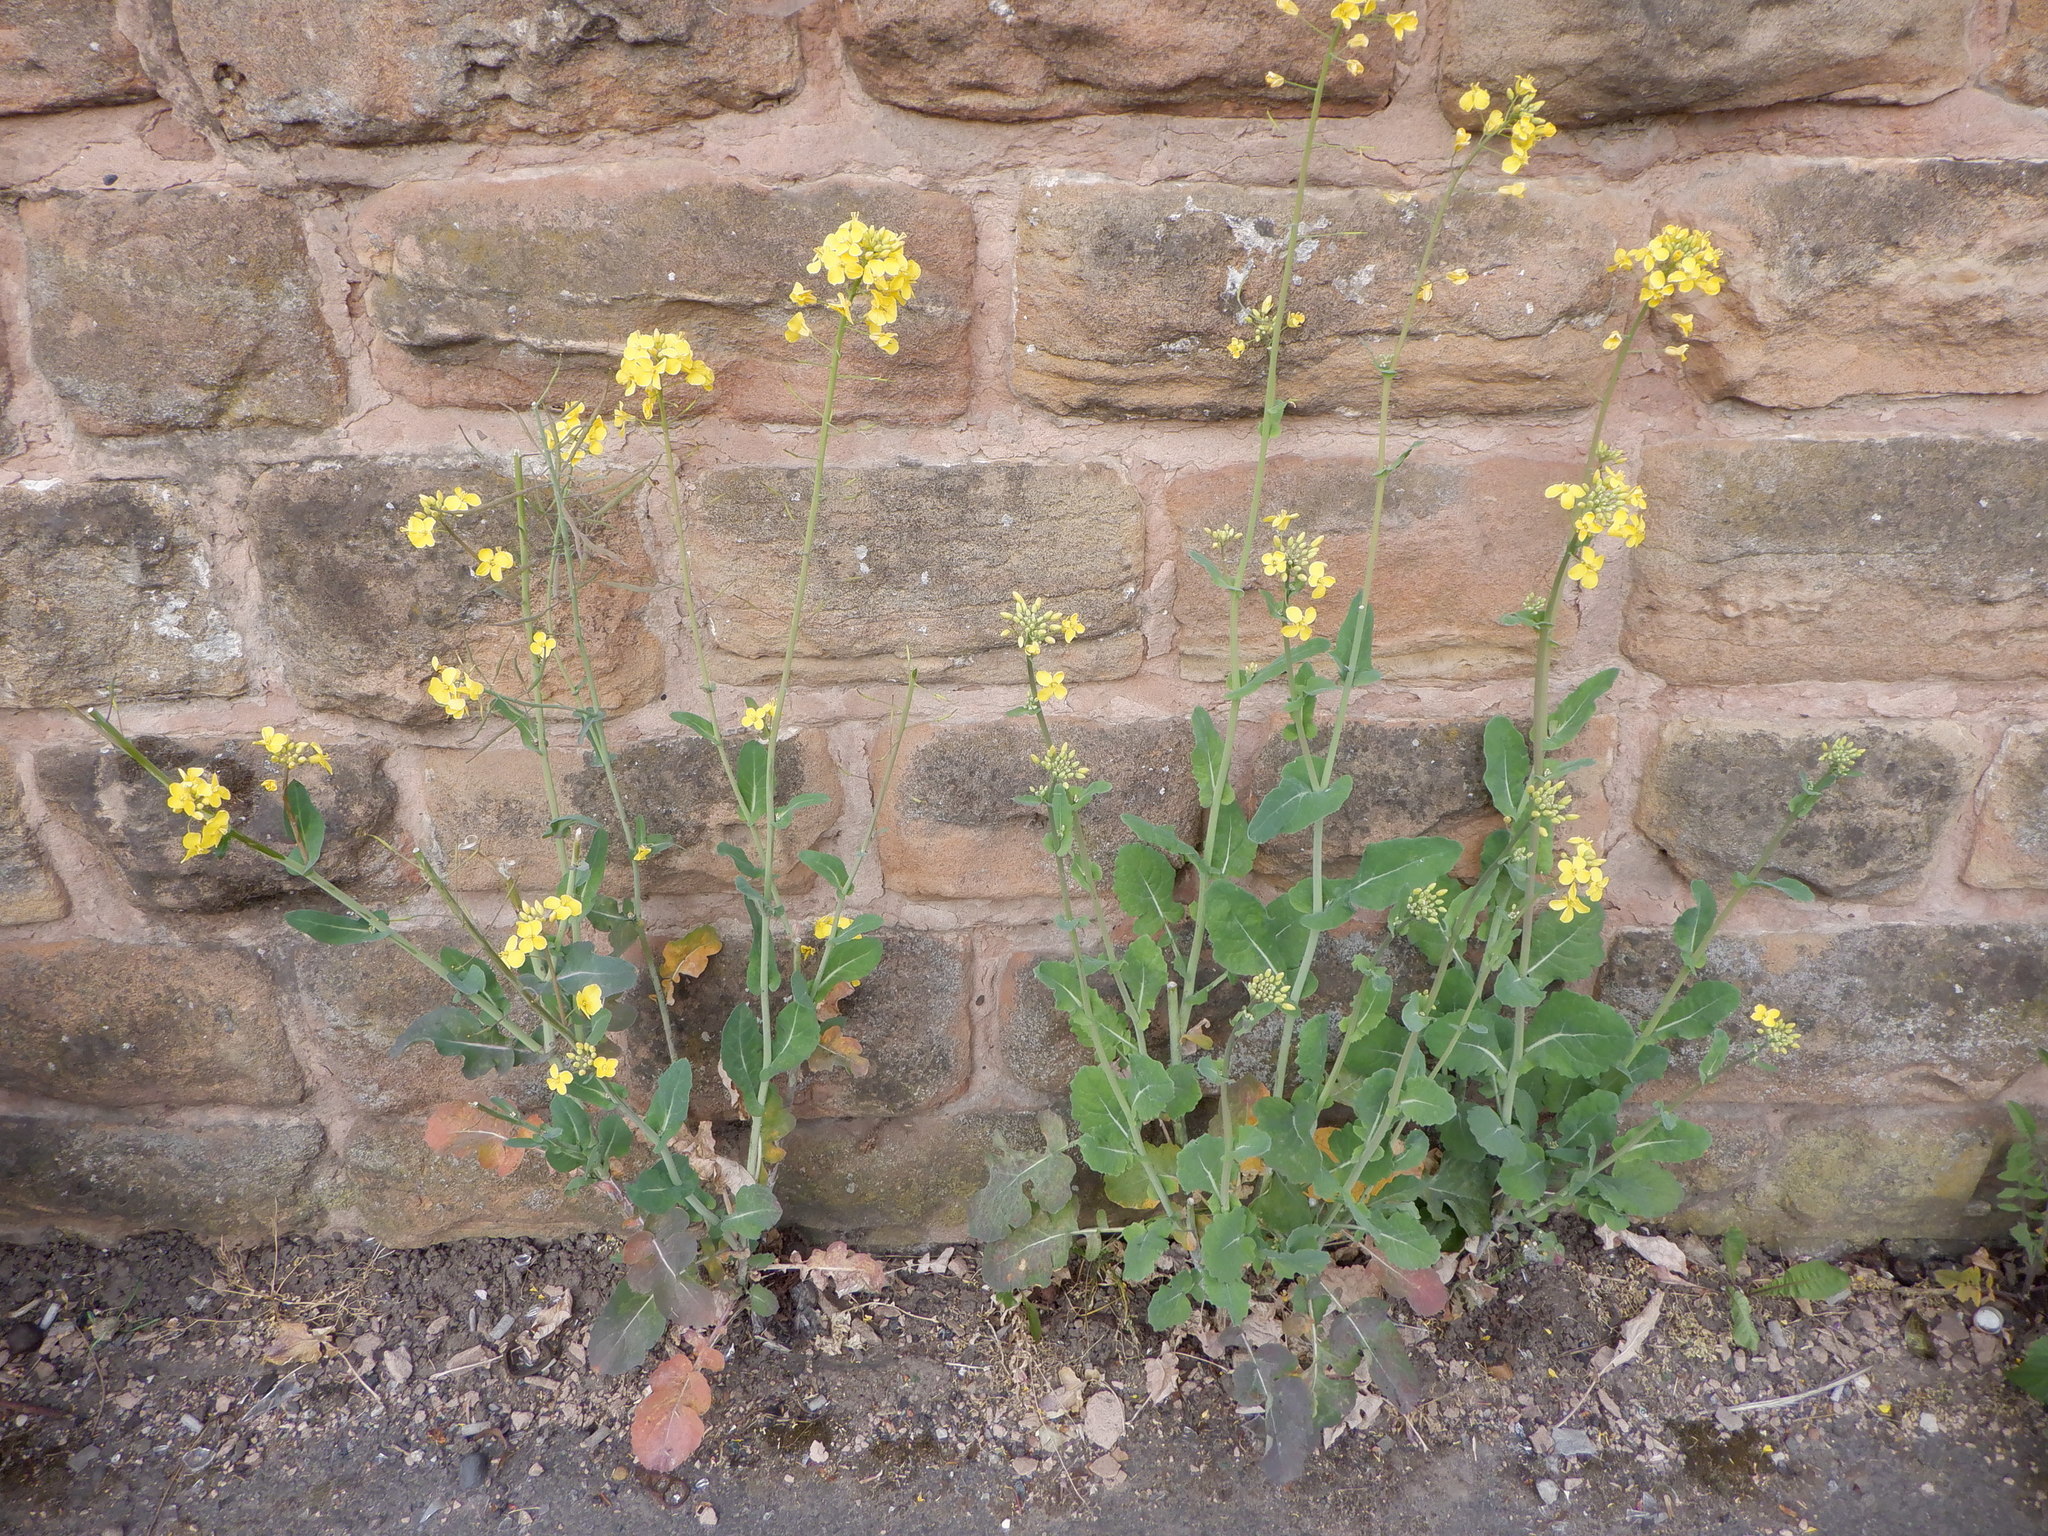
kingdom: Plantae
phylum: Tracheophyta
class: Magnoliopsida
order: Brassicales
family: Brassicaceae
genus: Brassica
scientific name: Brassica napus
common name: Rape
